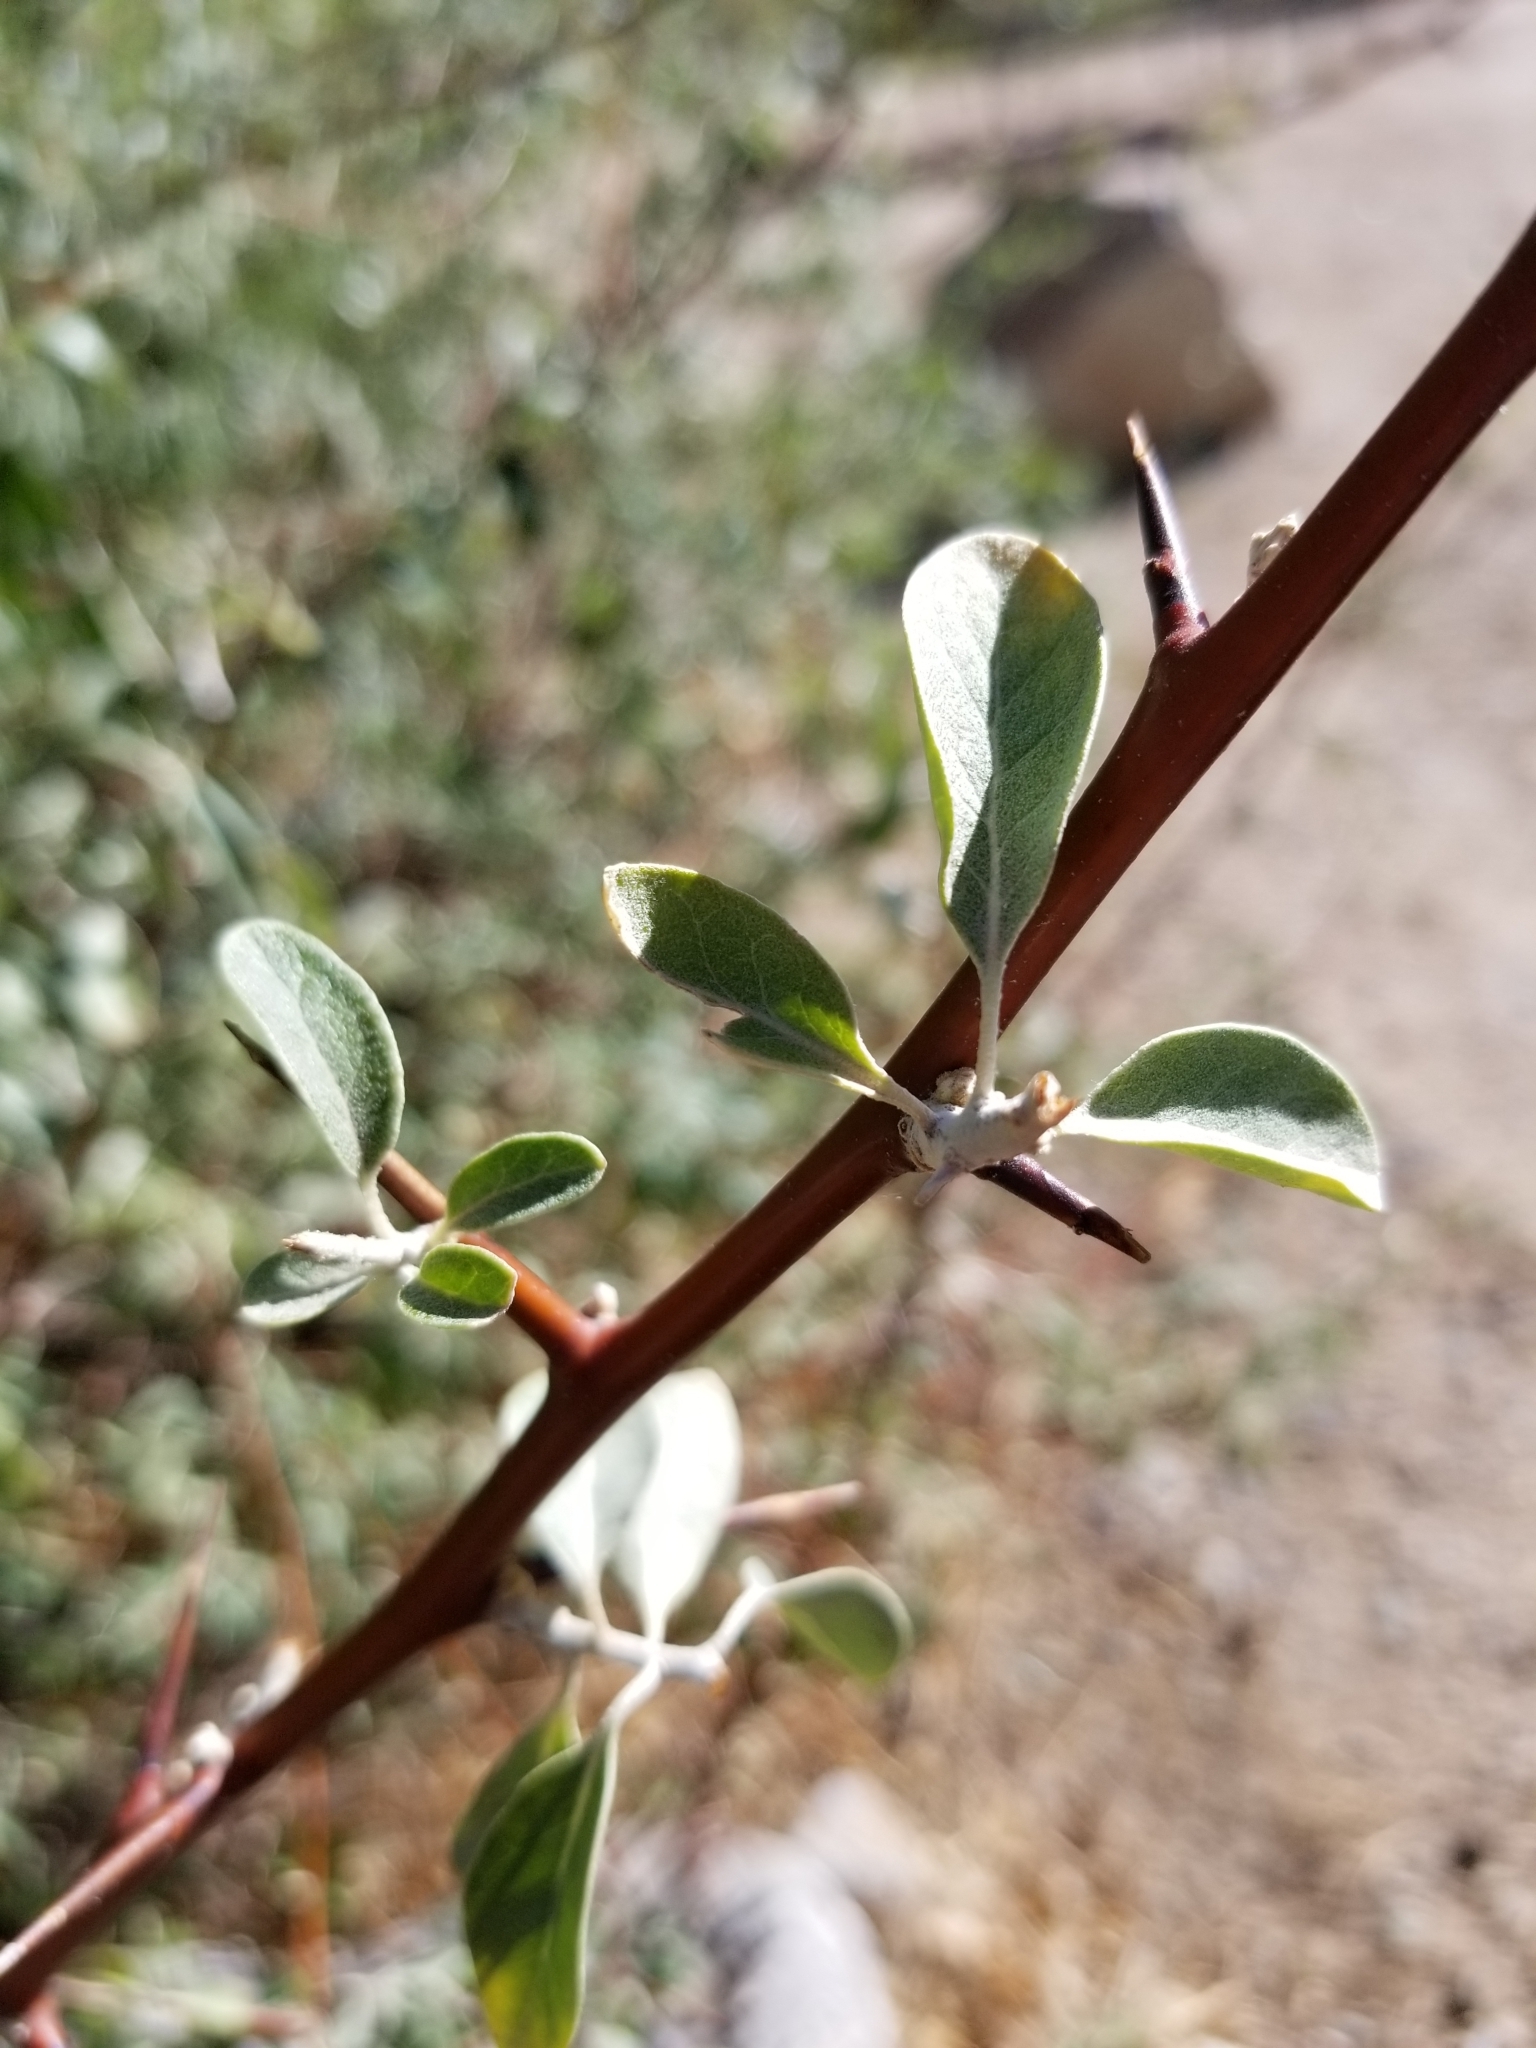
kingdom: Plantae
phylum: Tracheophyta
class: Magnoliopsida
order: Rosales
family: Elaeagnaceae
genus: Elaeagnus
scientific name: Elaeagnus angustifolia
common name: Russian olive
